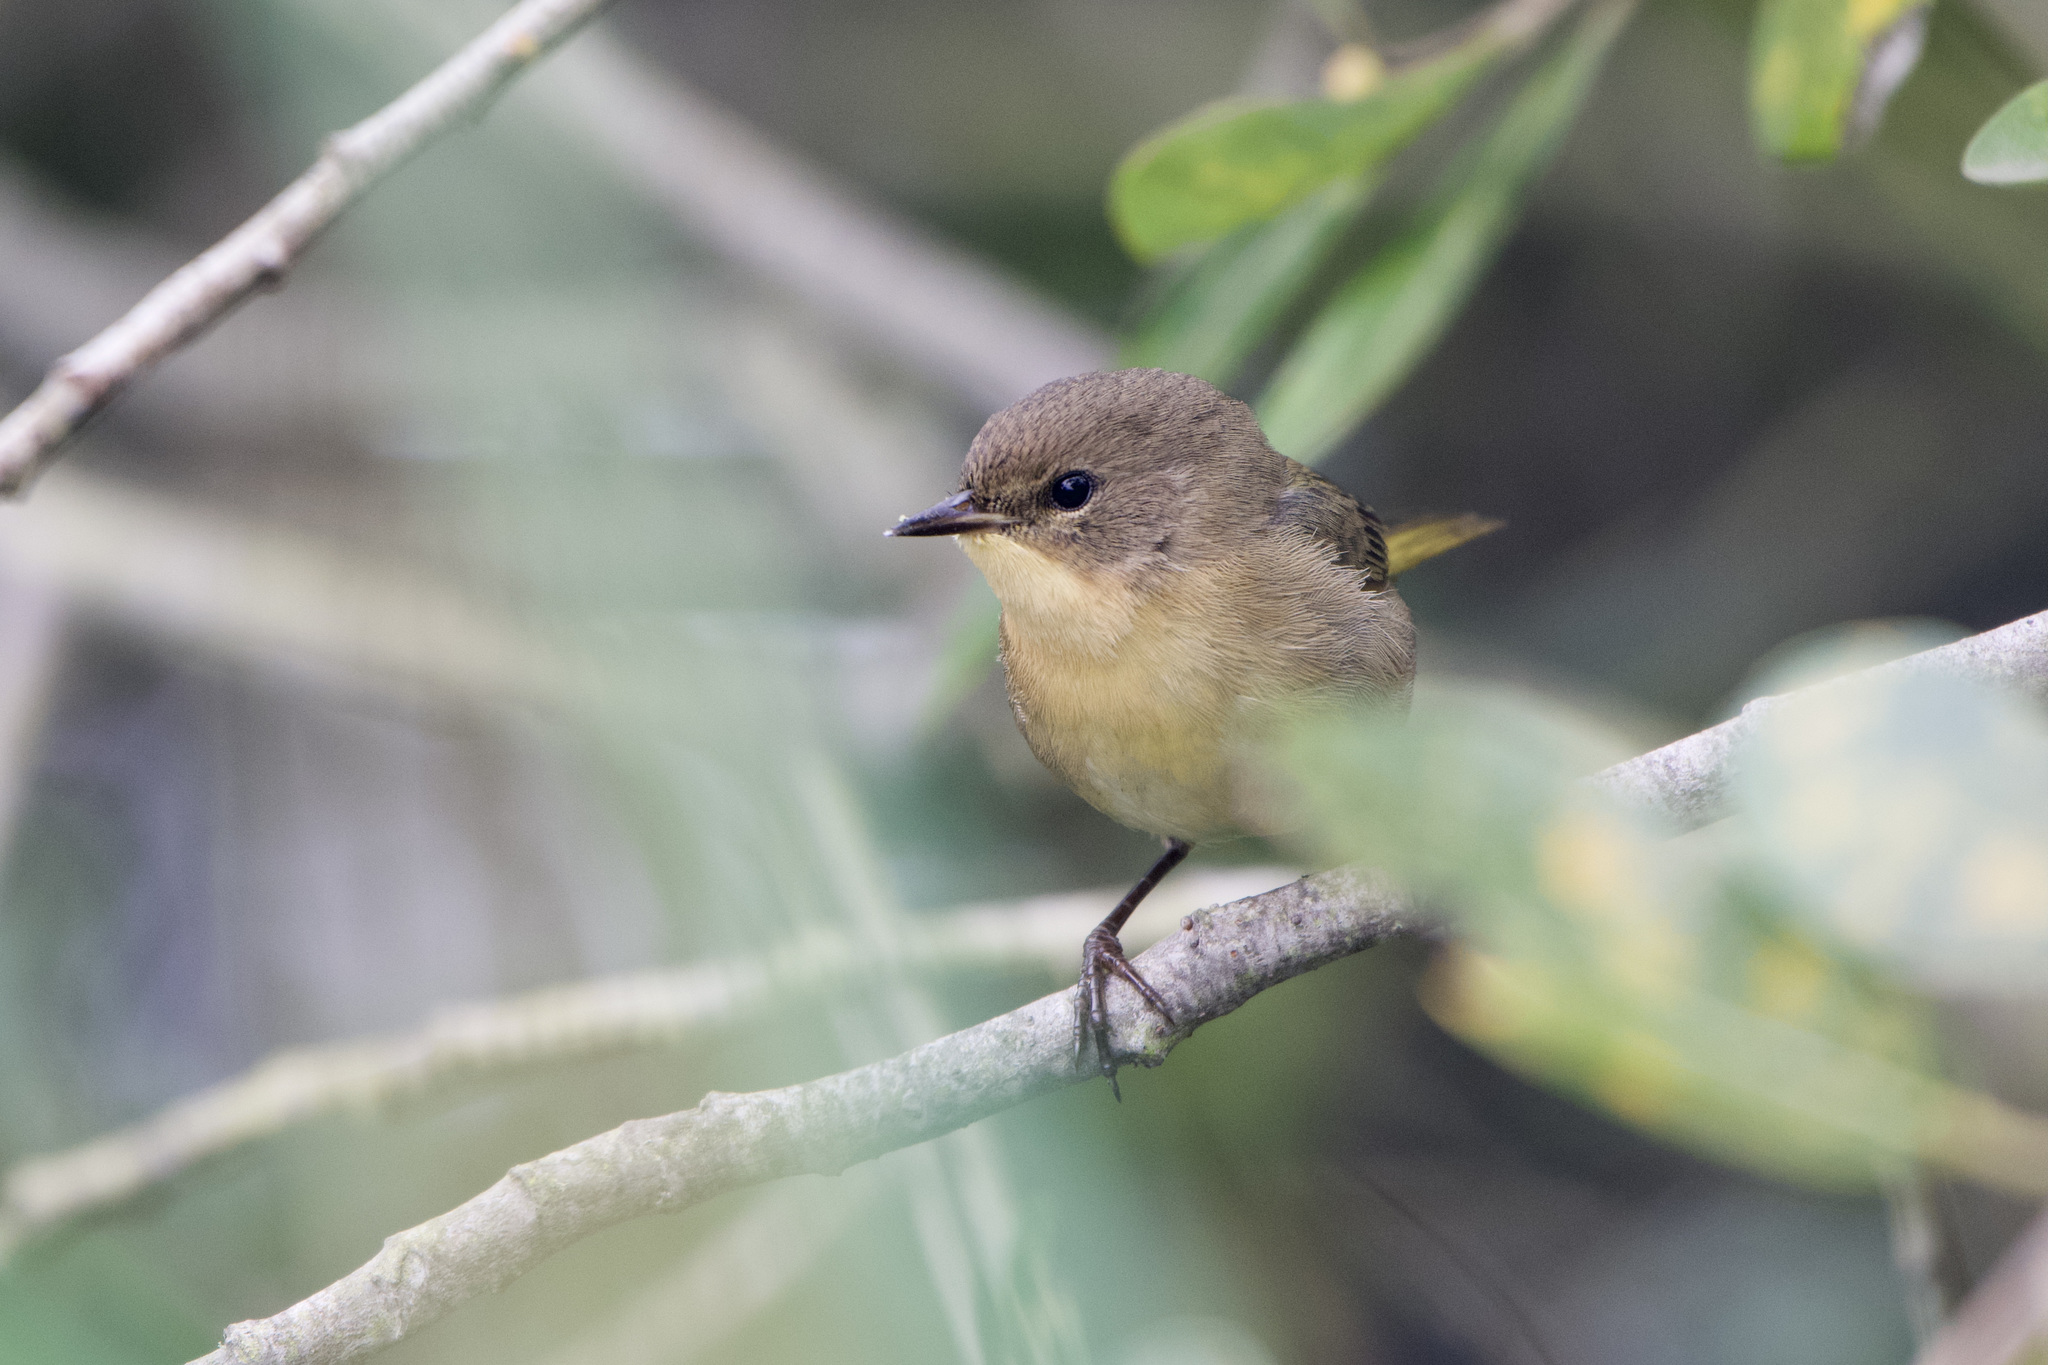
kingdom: Animalia
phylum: Chordata
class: Aves
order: Passeriformes
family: Parulidae
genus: Geothlypis
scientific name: Geothlypis trichas
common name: Common yellowthroat
